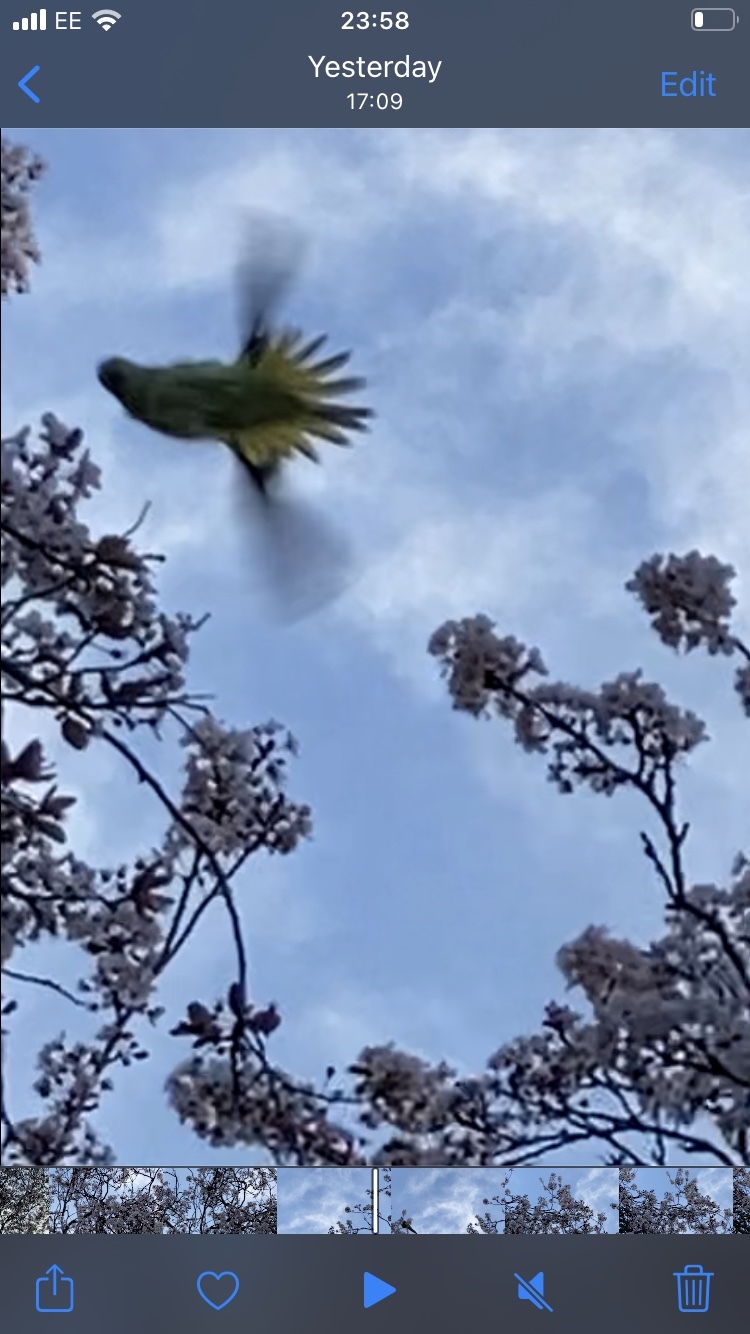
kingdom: Animalia
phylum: Chordata
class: Aves
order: Psittaciformes
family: Psittacidae
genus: Psittacula
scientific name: Psittacula krameri
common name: Rose-ringed parakeet
